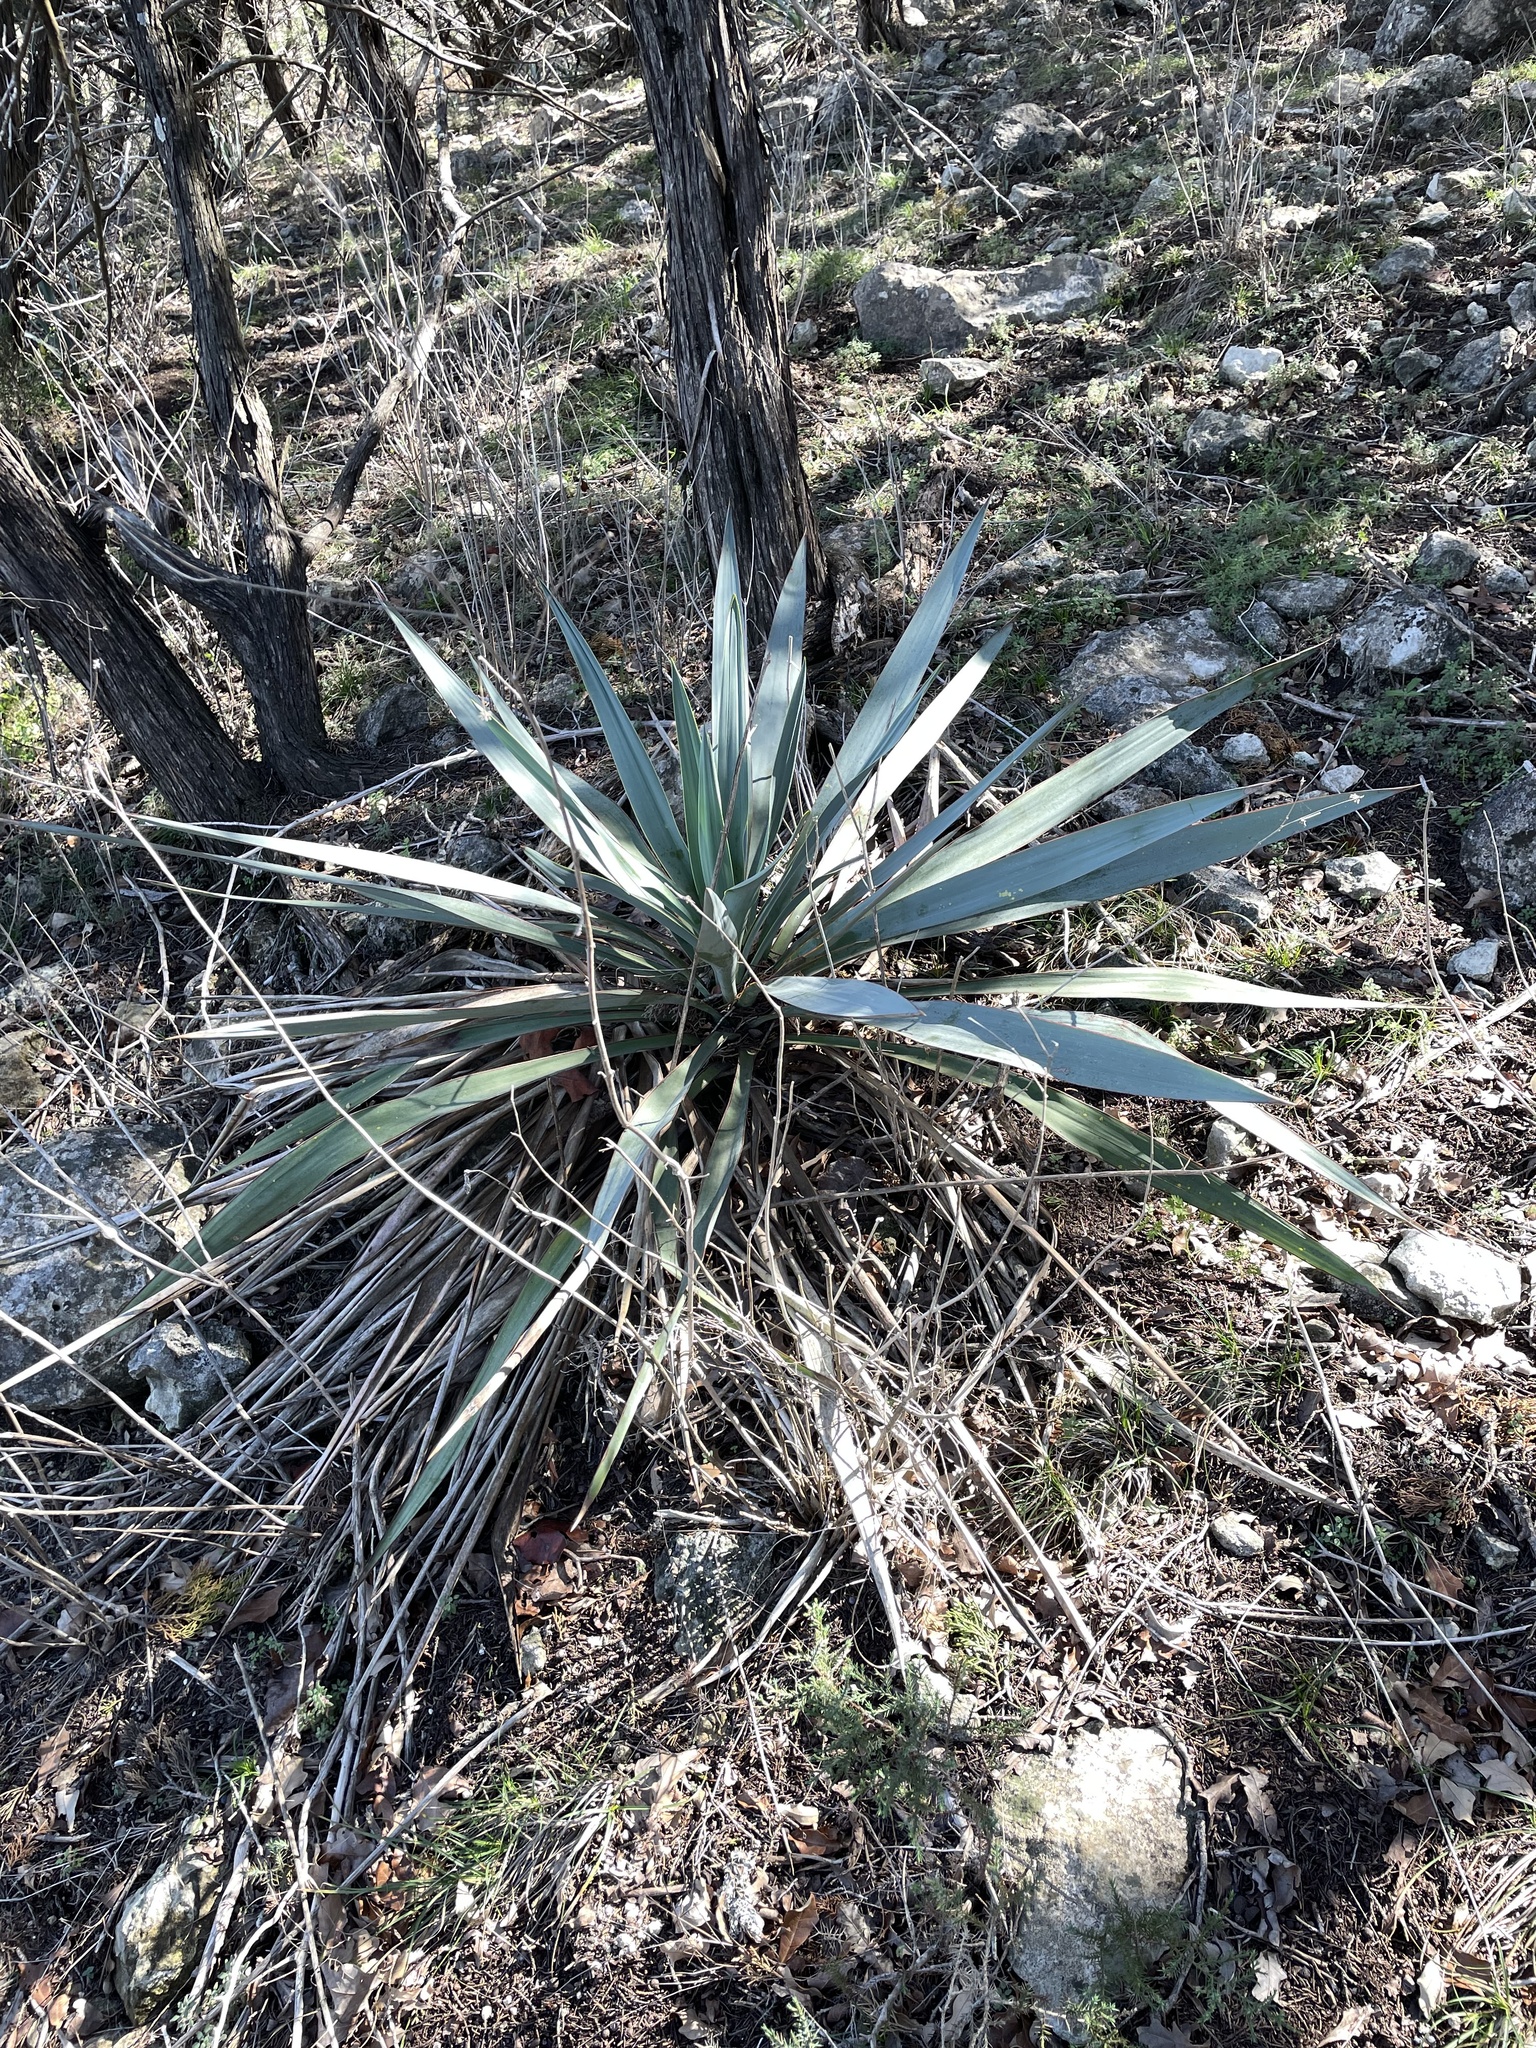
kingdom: Plantae
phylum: Tracheophyta
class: Liliopsida
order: Asparagales
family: Asparagaceae
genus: Yucca
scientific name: Yucca pallida
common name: Pale leaf yucca
